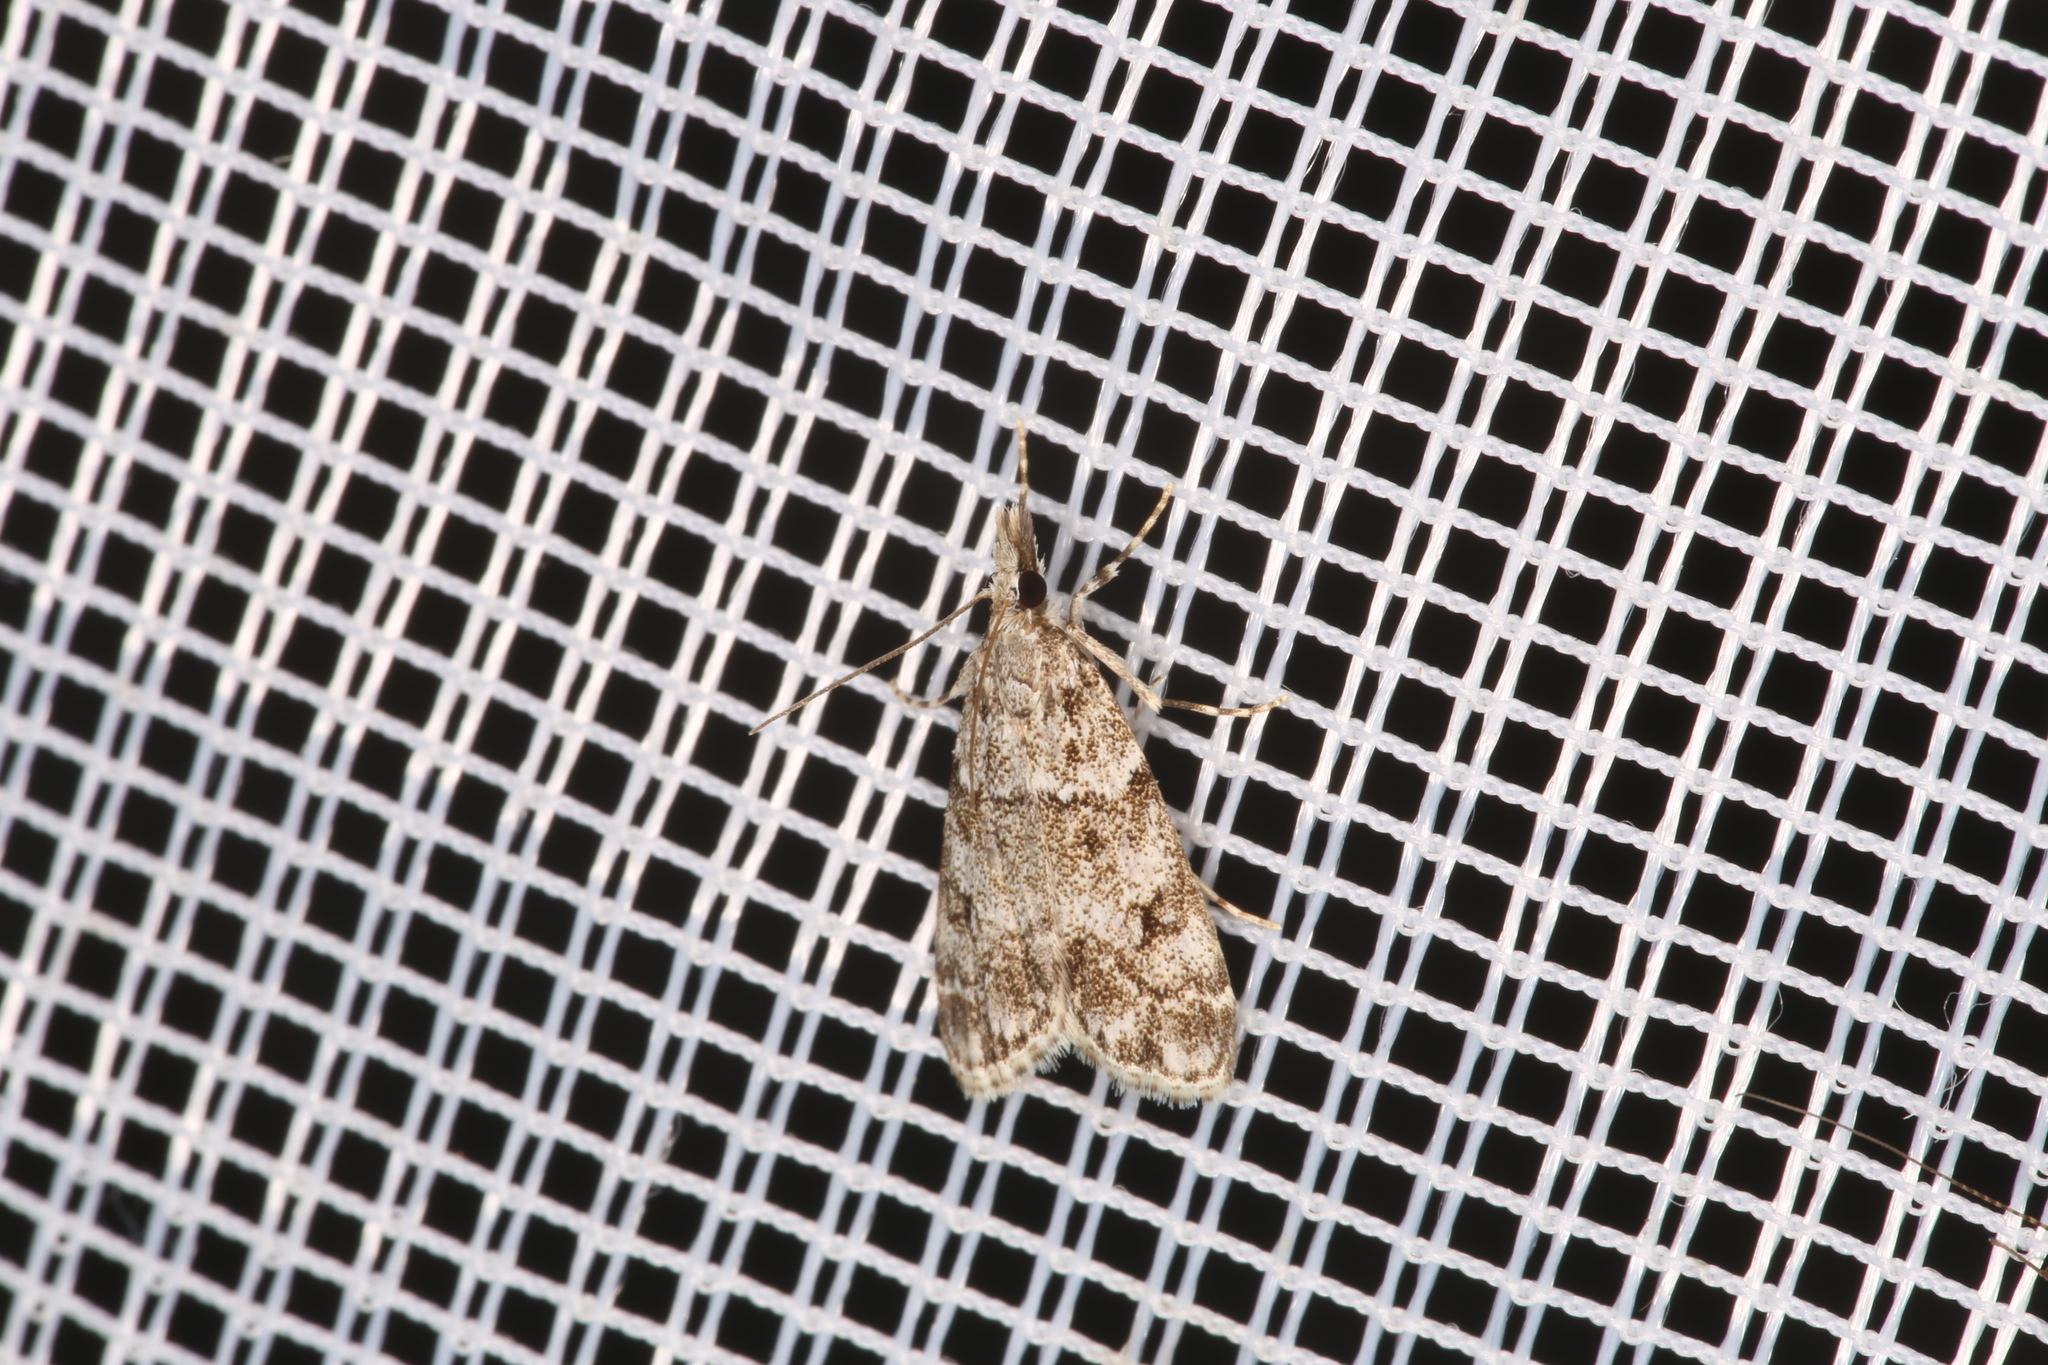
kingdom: Animalia
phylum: Arthropoda
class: Insecta
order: Lepidoptera
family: Crambidae
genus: Eudonia
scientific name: Eudonia lacustrata
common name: Little grey
